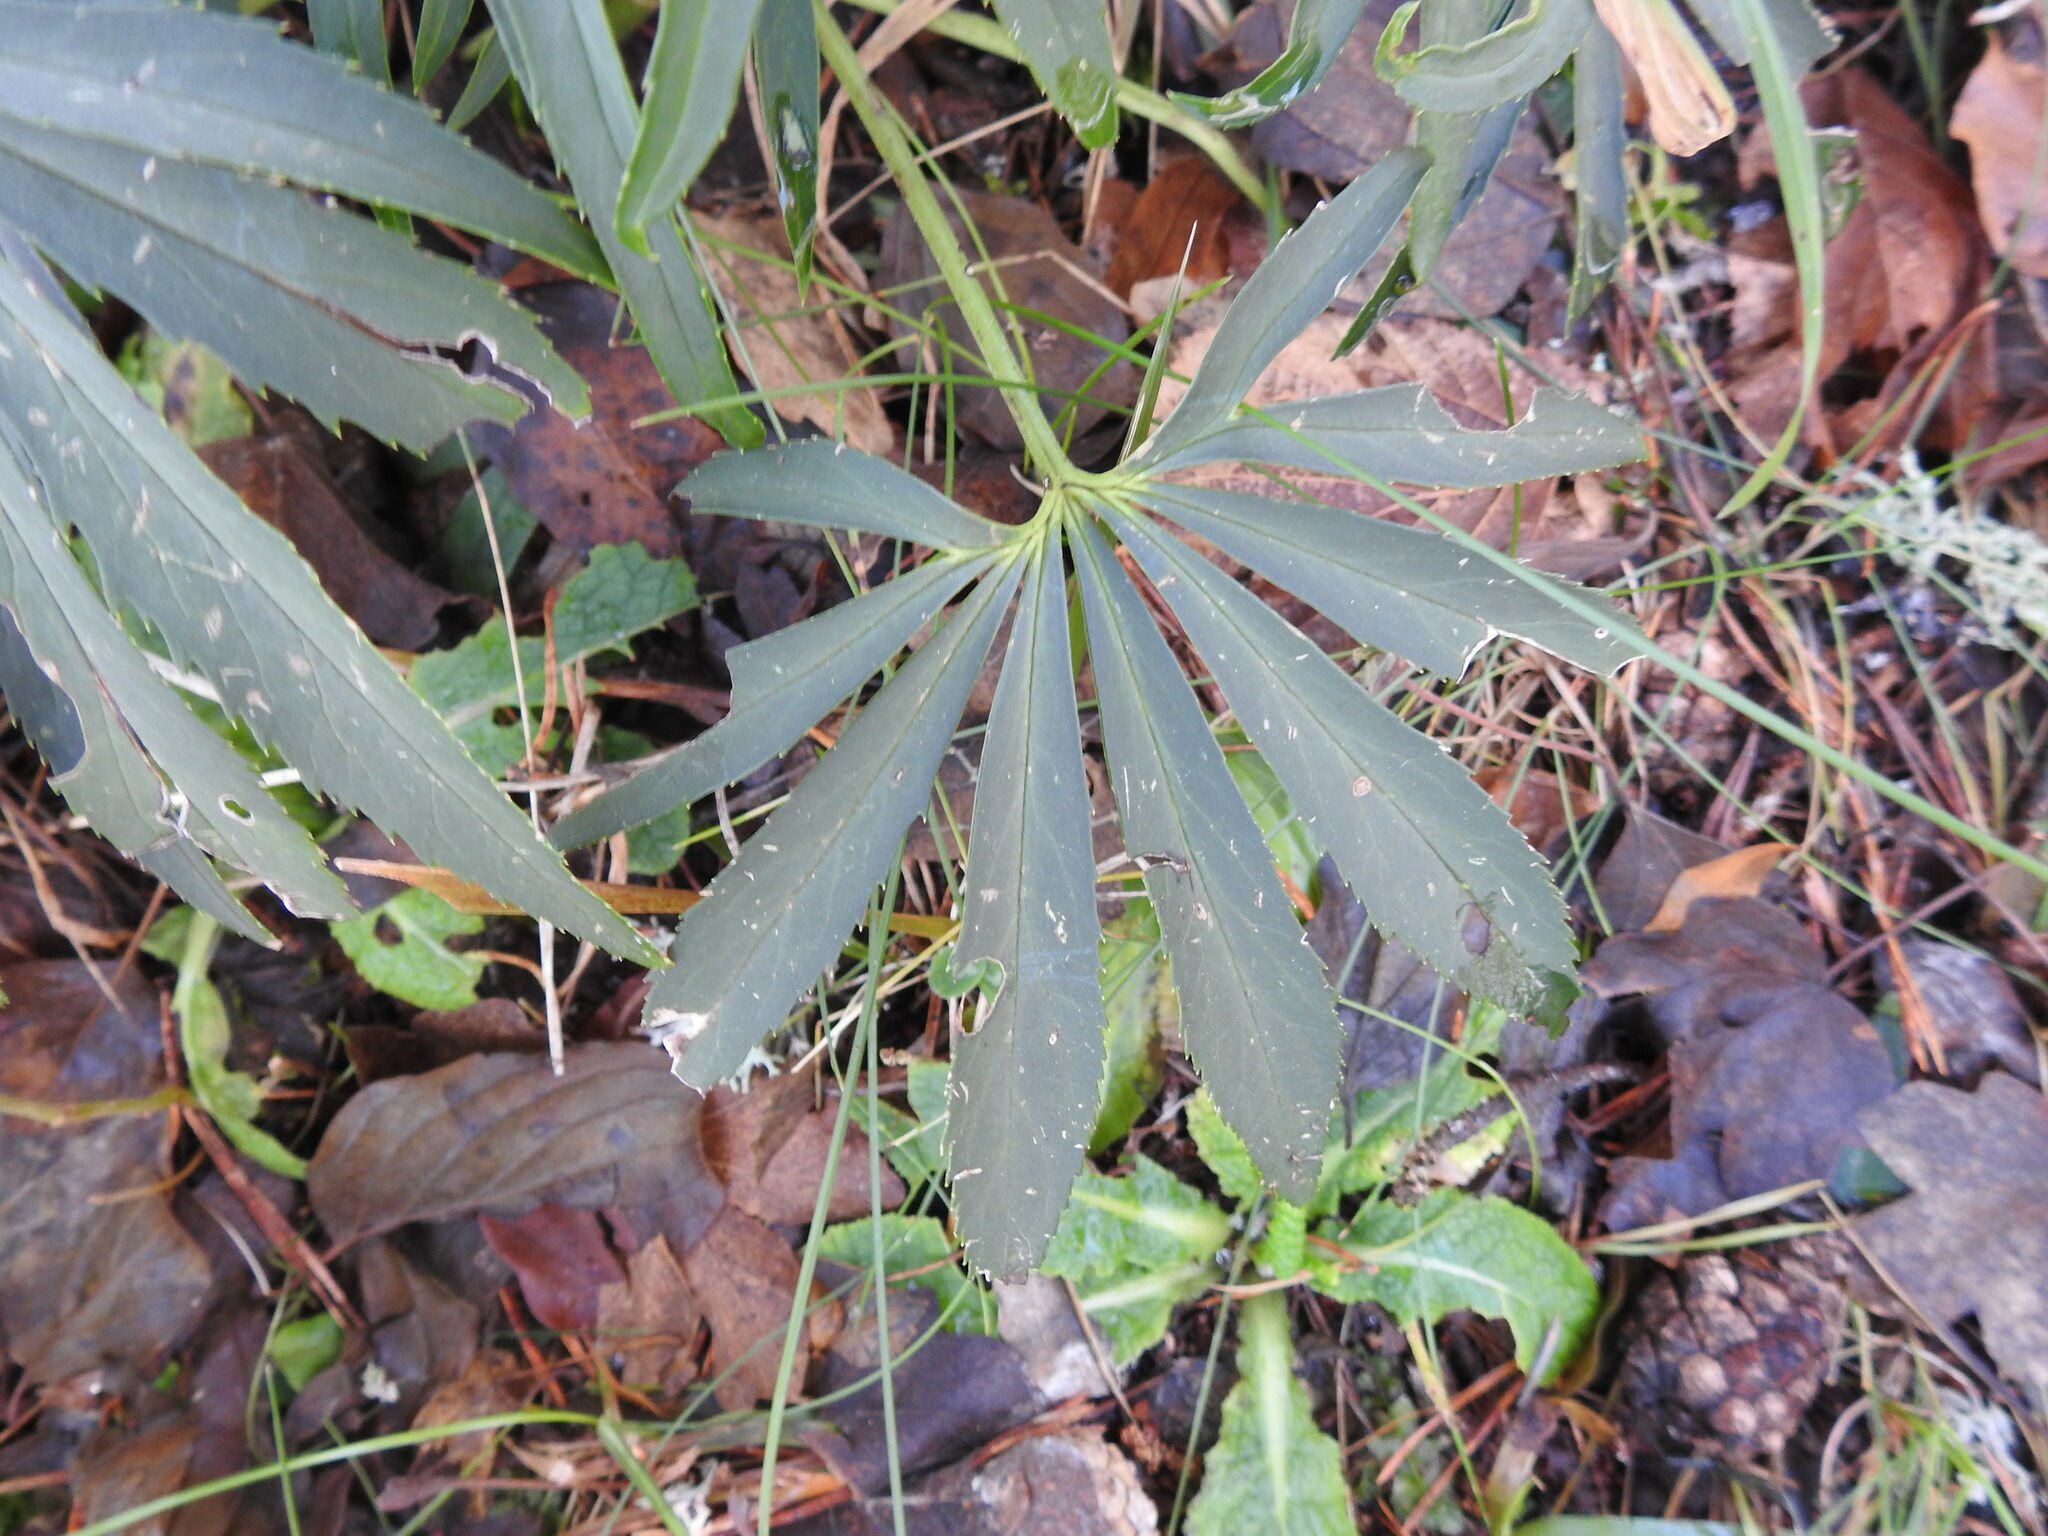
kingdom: Plantae
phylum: Tracheophyta
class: Magnoliopsida
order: Ranunculales
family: Ranunculaceae
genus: Helleborus
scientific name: Helleborus foetidus
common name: Stinking hellebore
